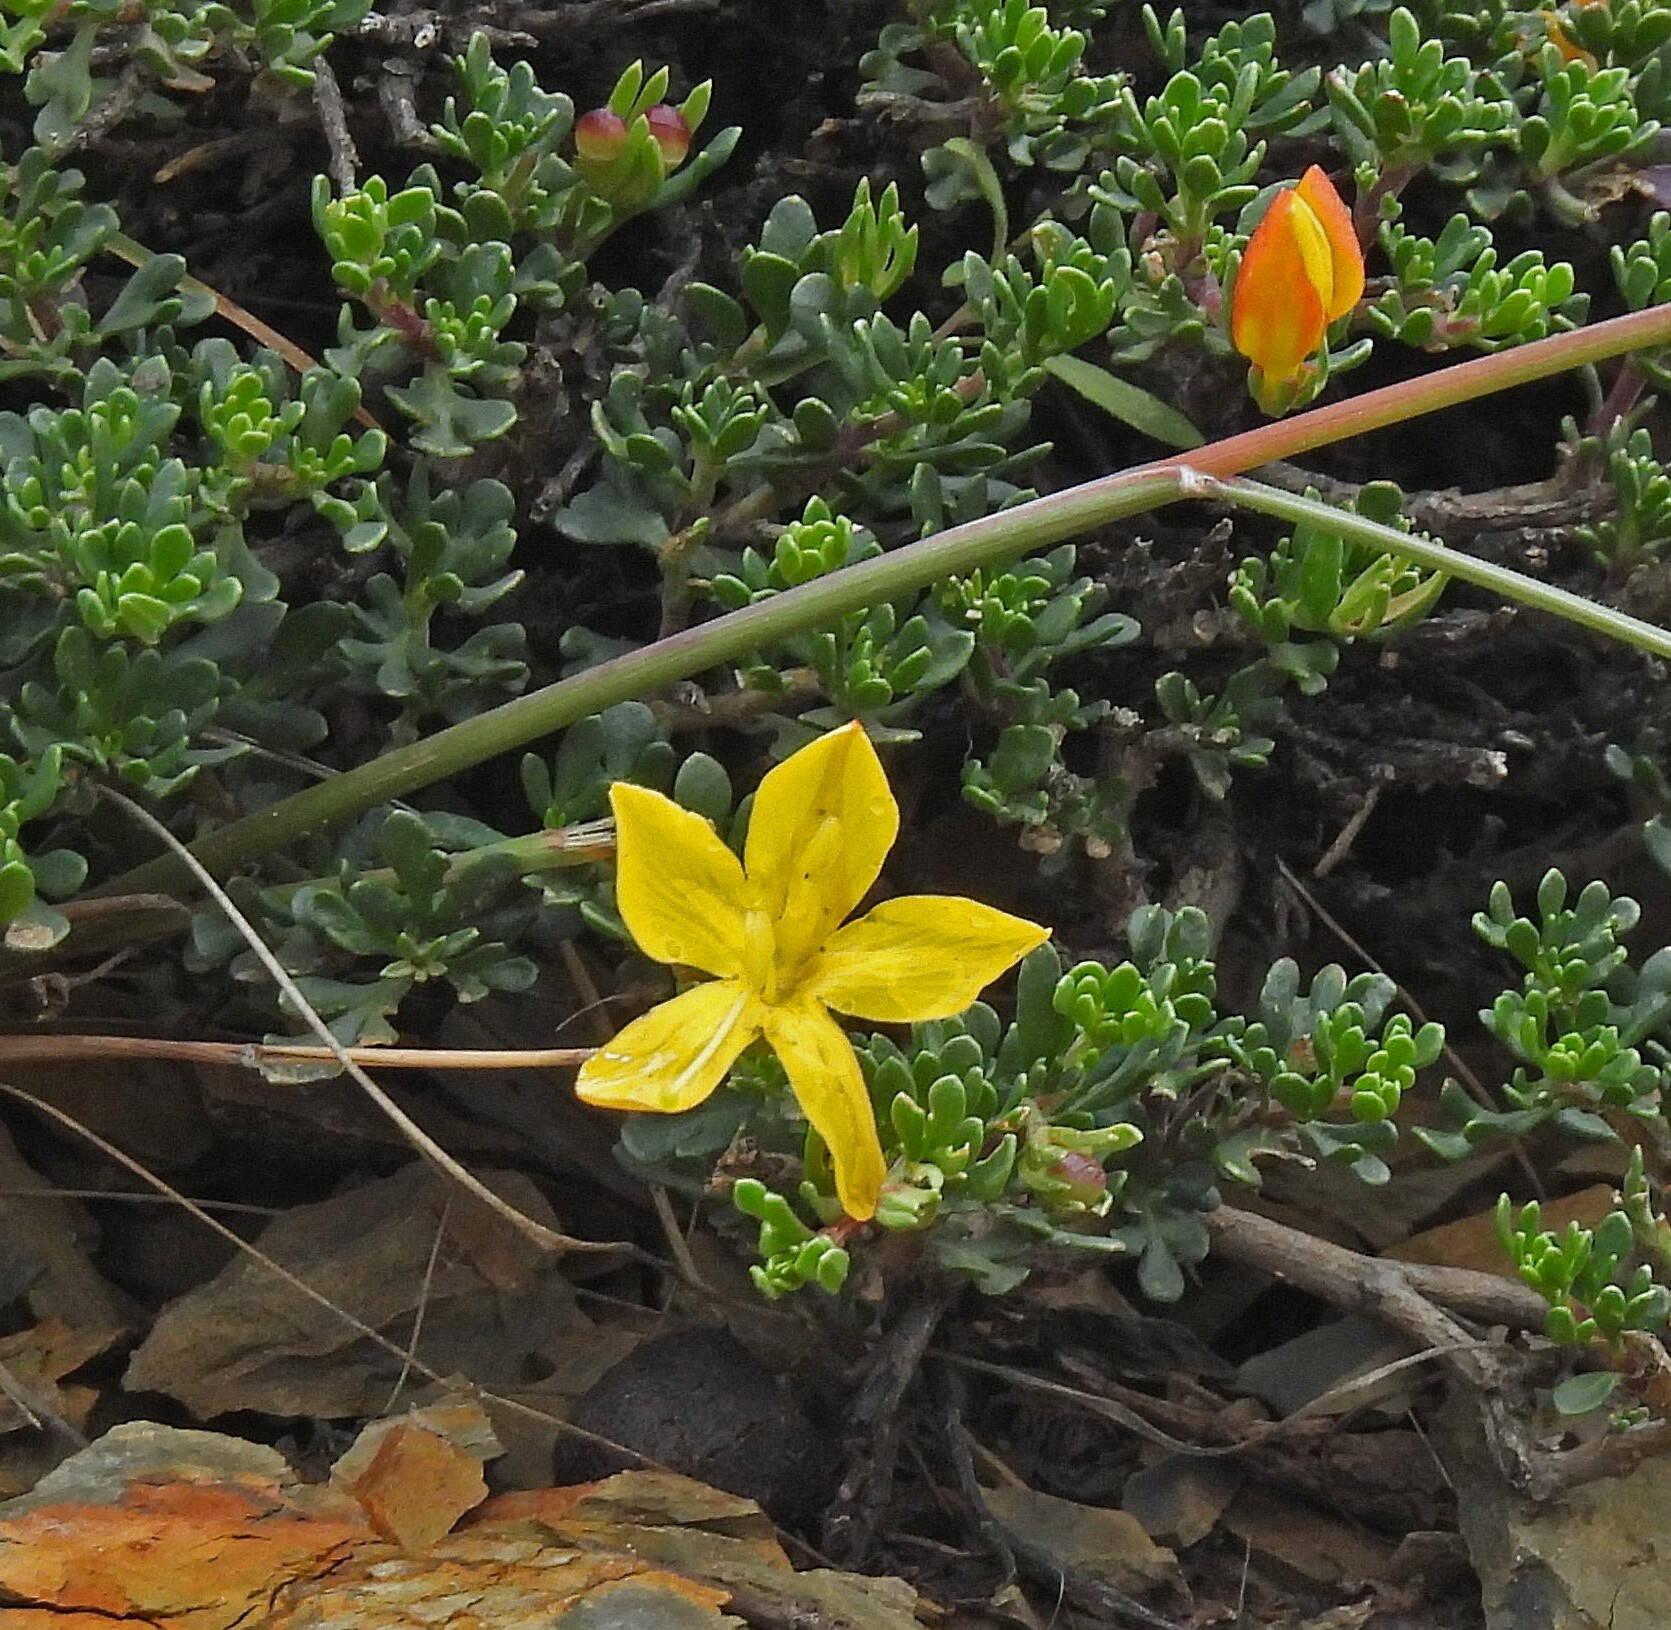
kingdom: Plantae
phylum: Tracheophyta
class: Magnoliopsida
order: Lamiales
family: Oleaceae
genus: Menodora
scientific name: Menodora pulchella
